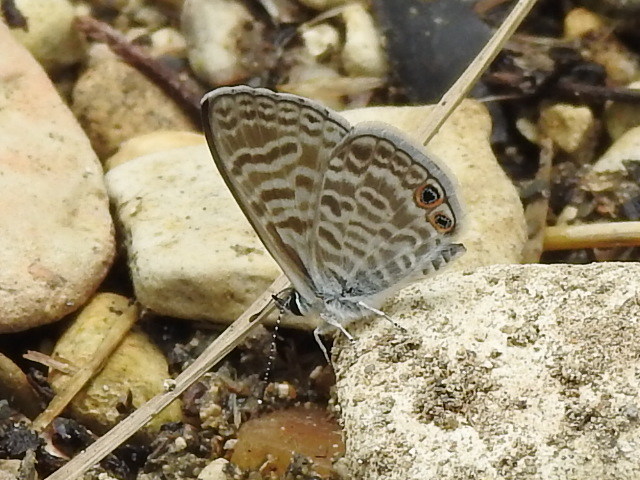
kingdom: Animalia
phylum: Arthropoda
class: Insecta
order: Lepidoptera
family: Lycaenidae
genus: Leptotes
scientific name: Leptotes marina
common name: Marine blue
